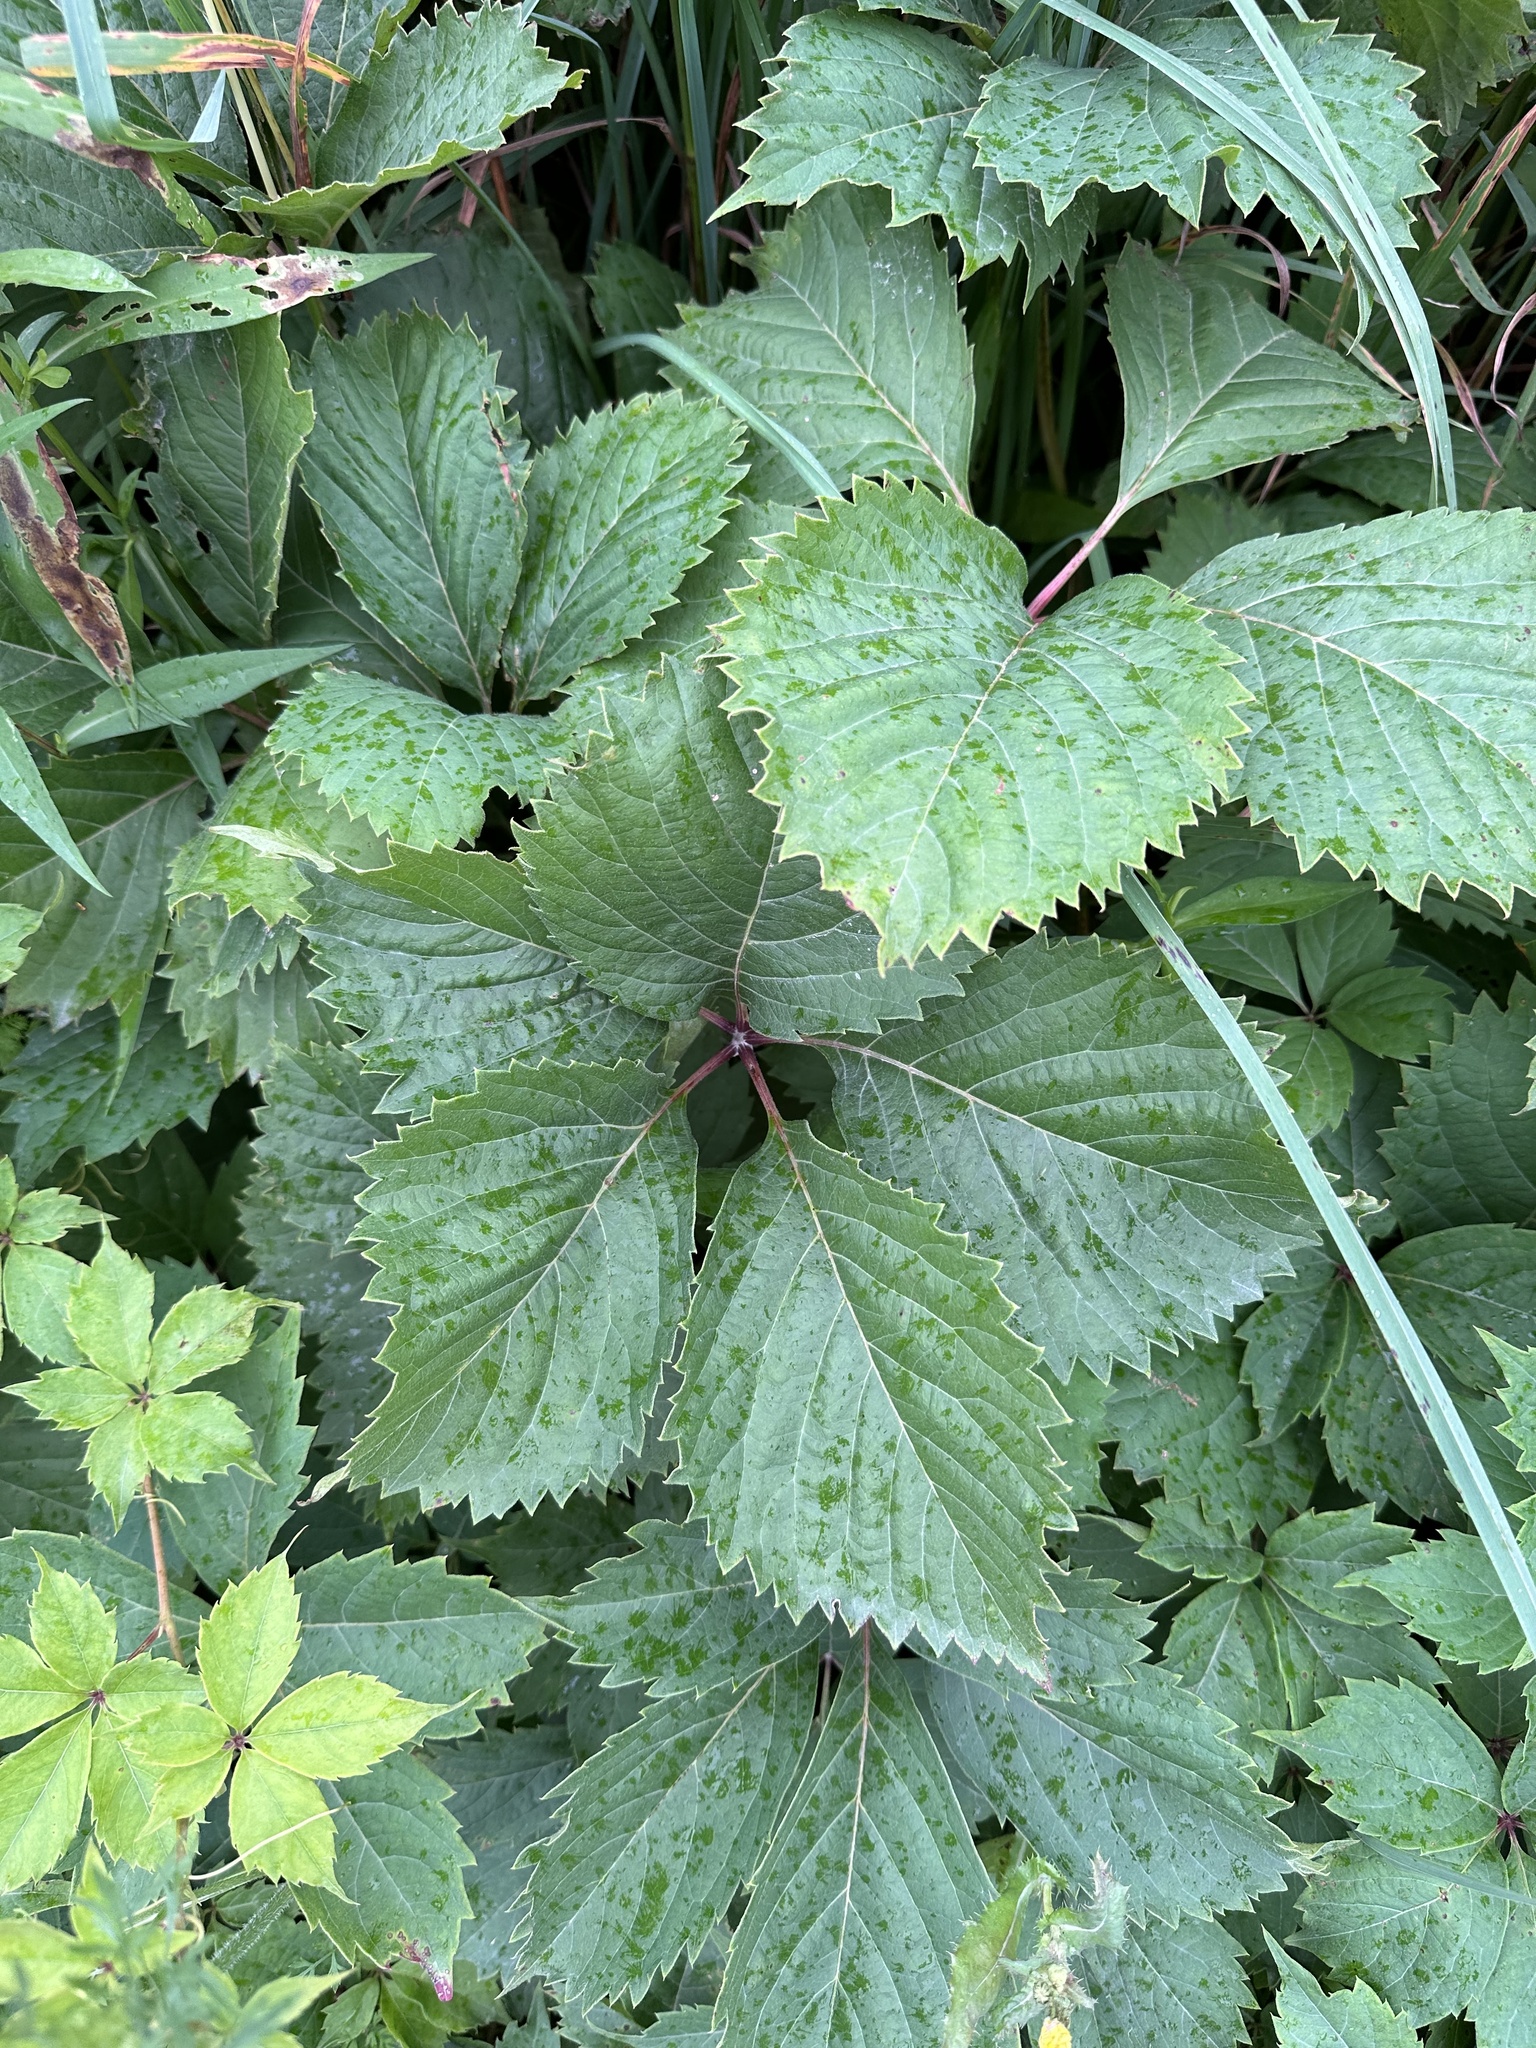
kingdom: Plantae
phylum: Tracheophyta
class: Magnoliopsida
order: Vitales
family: Vitaceae
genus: Parthenocissus
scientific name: Parthenocissus quinquefolia
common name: Virginia-creeper
